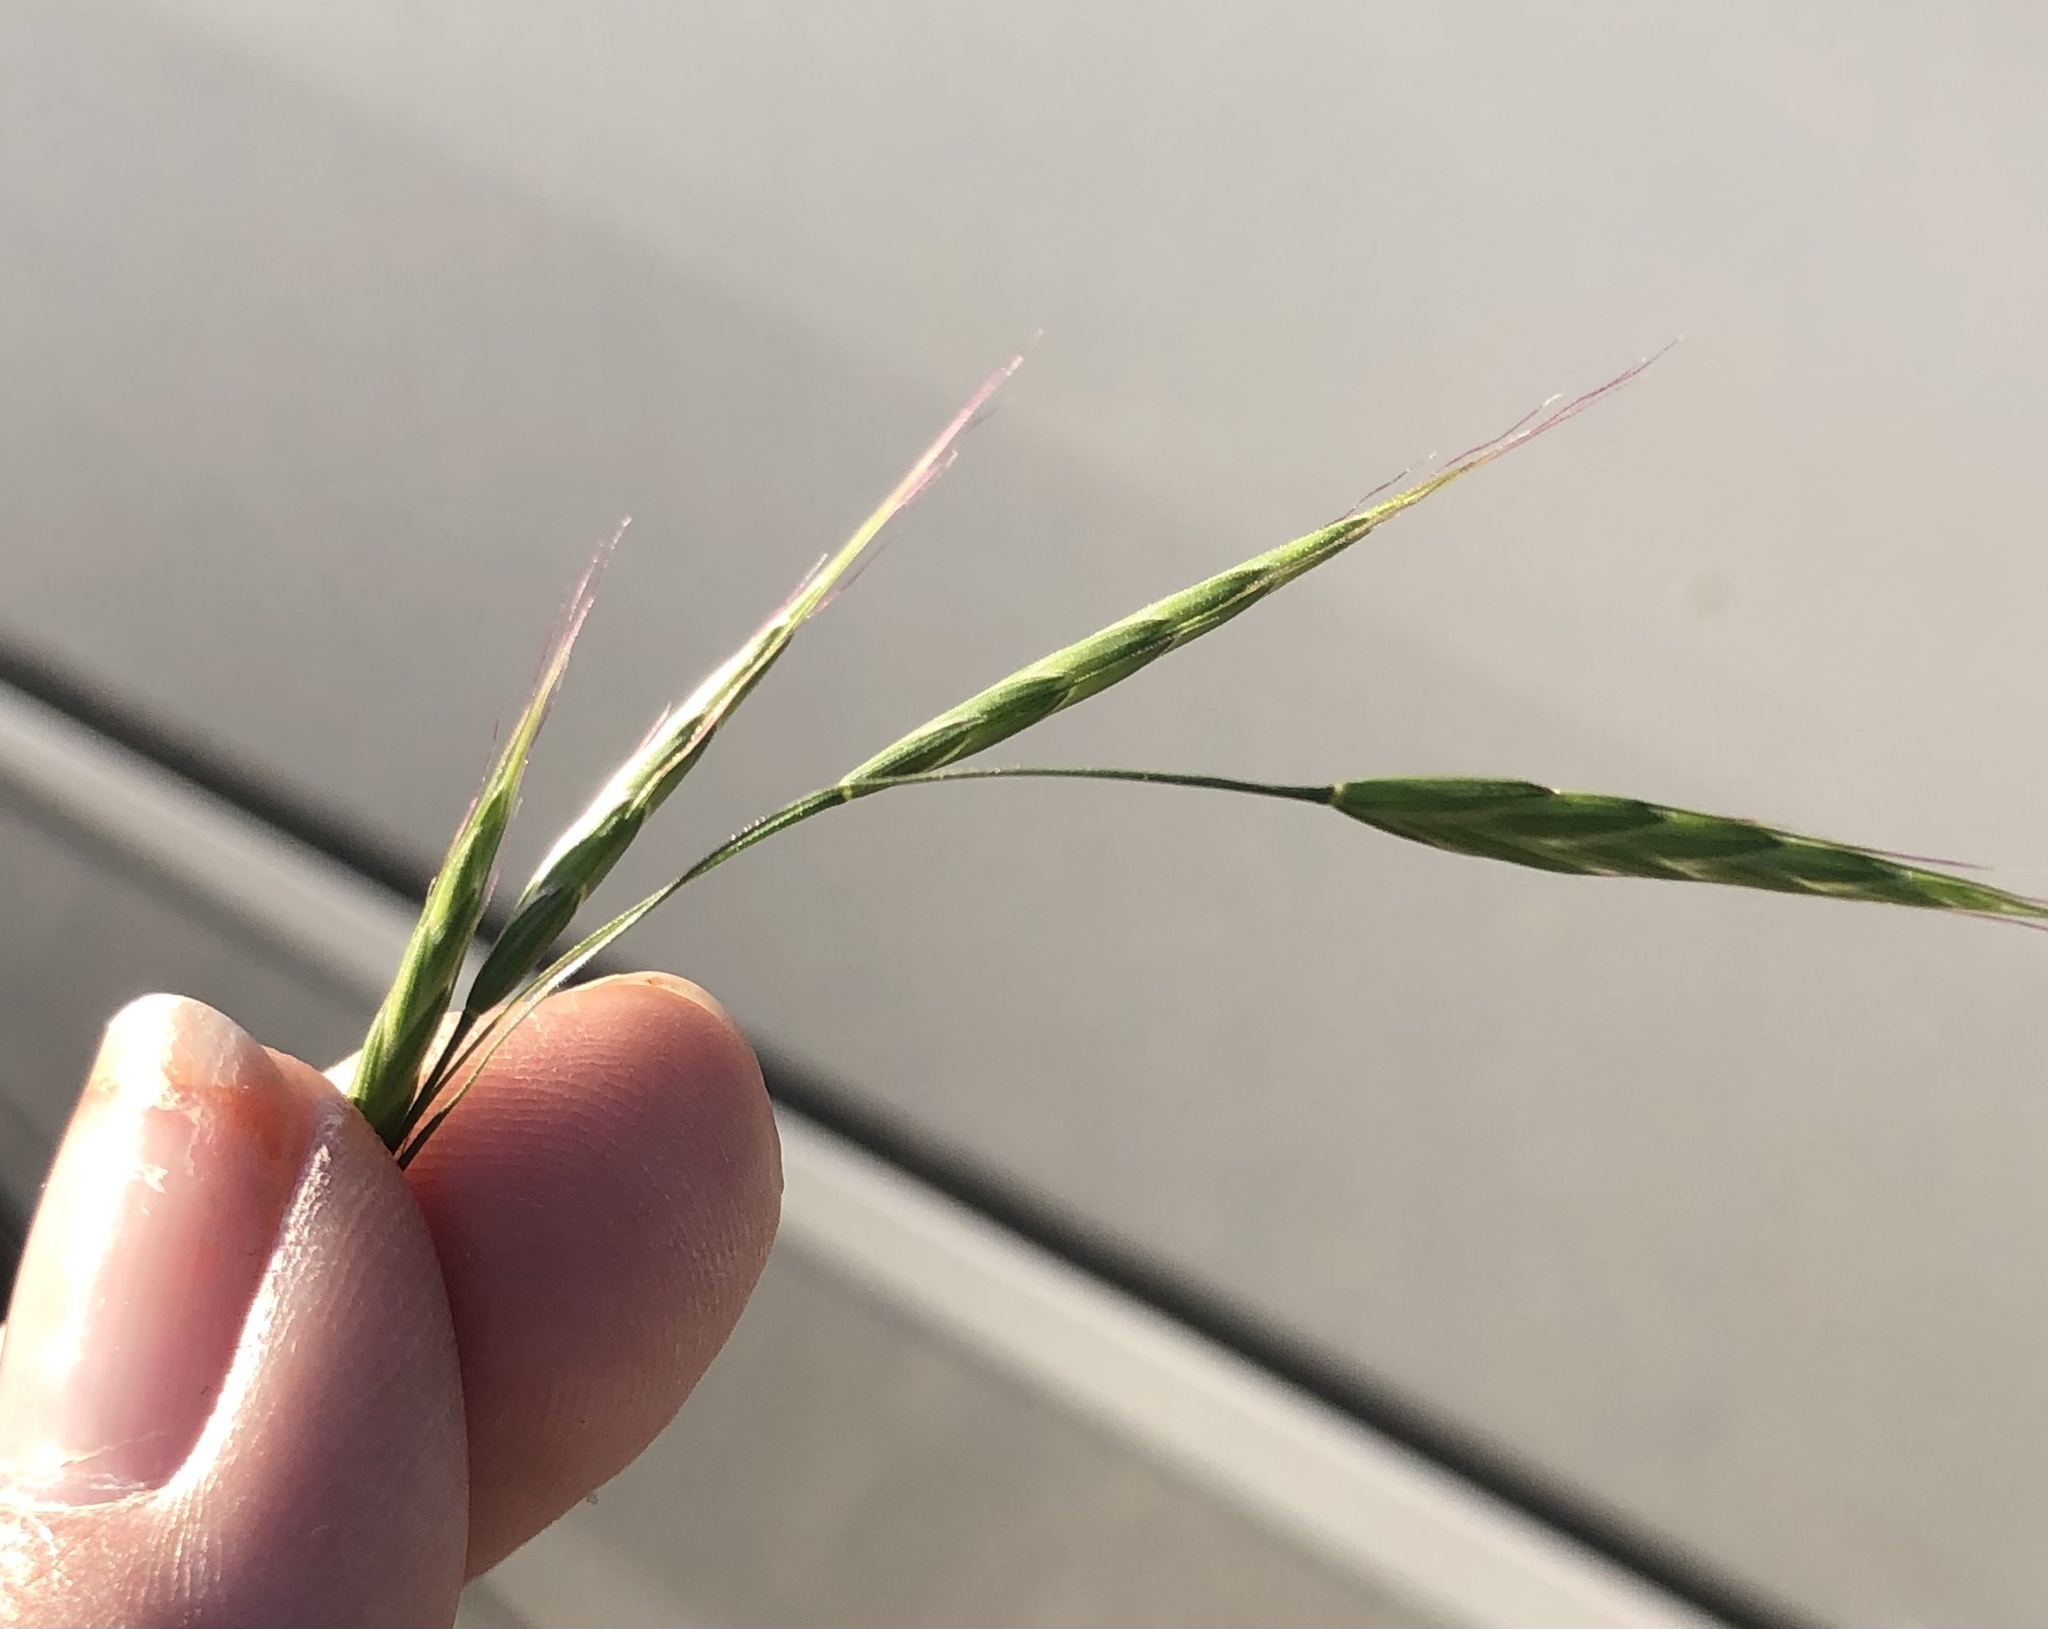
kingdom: Plantae
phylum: Tracheophyta
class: Liliopsida
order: Poales
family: Poaceae
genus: Bromus
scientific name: Bromus japonicus
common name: Japanese brome
